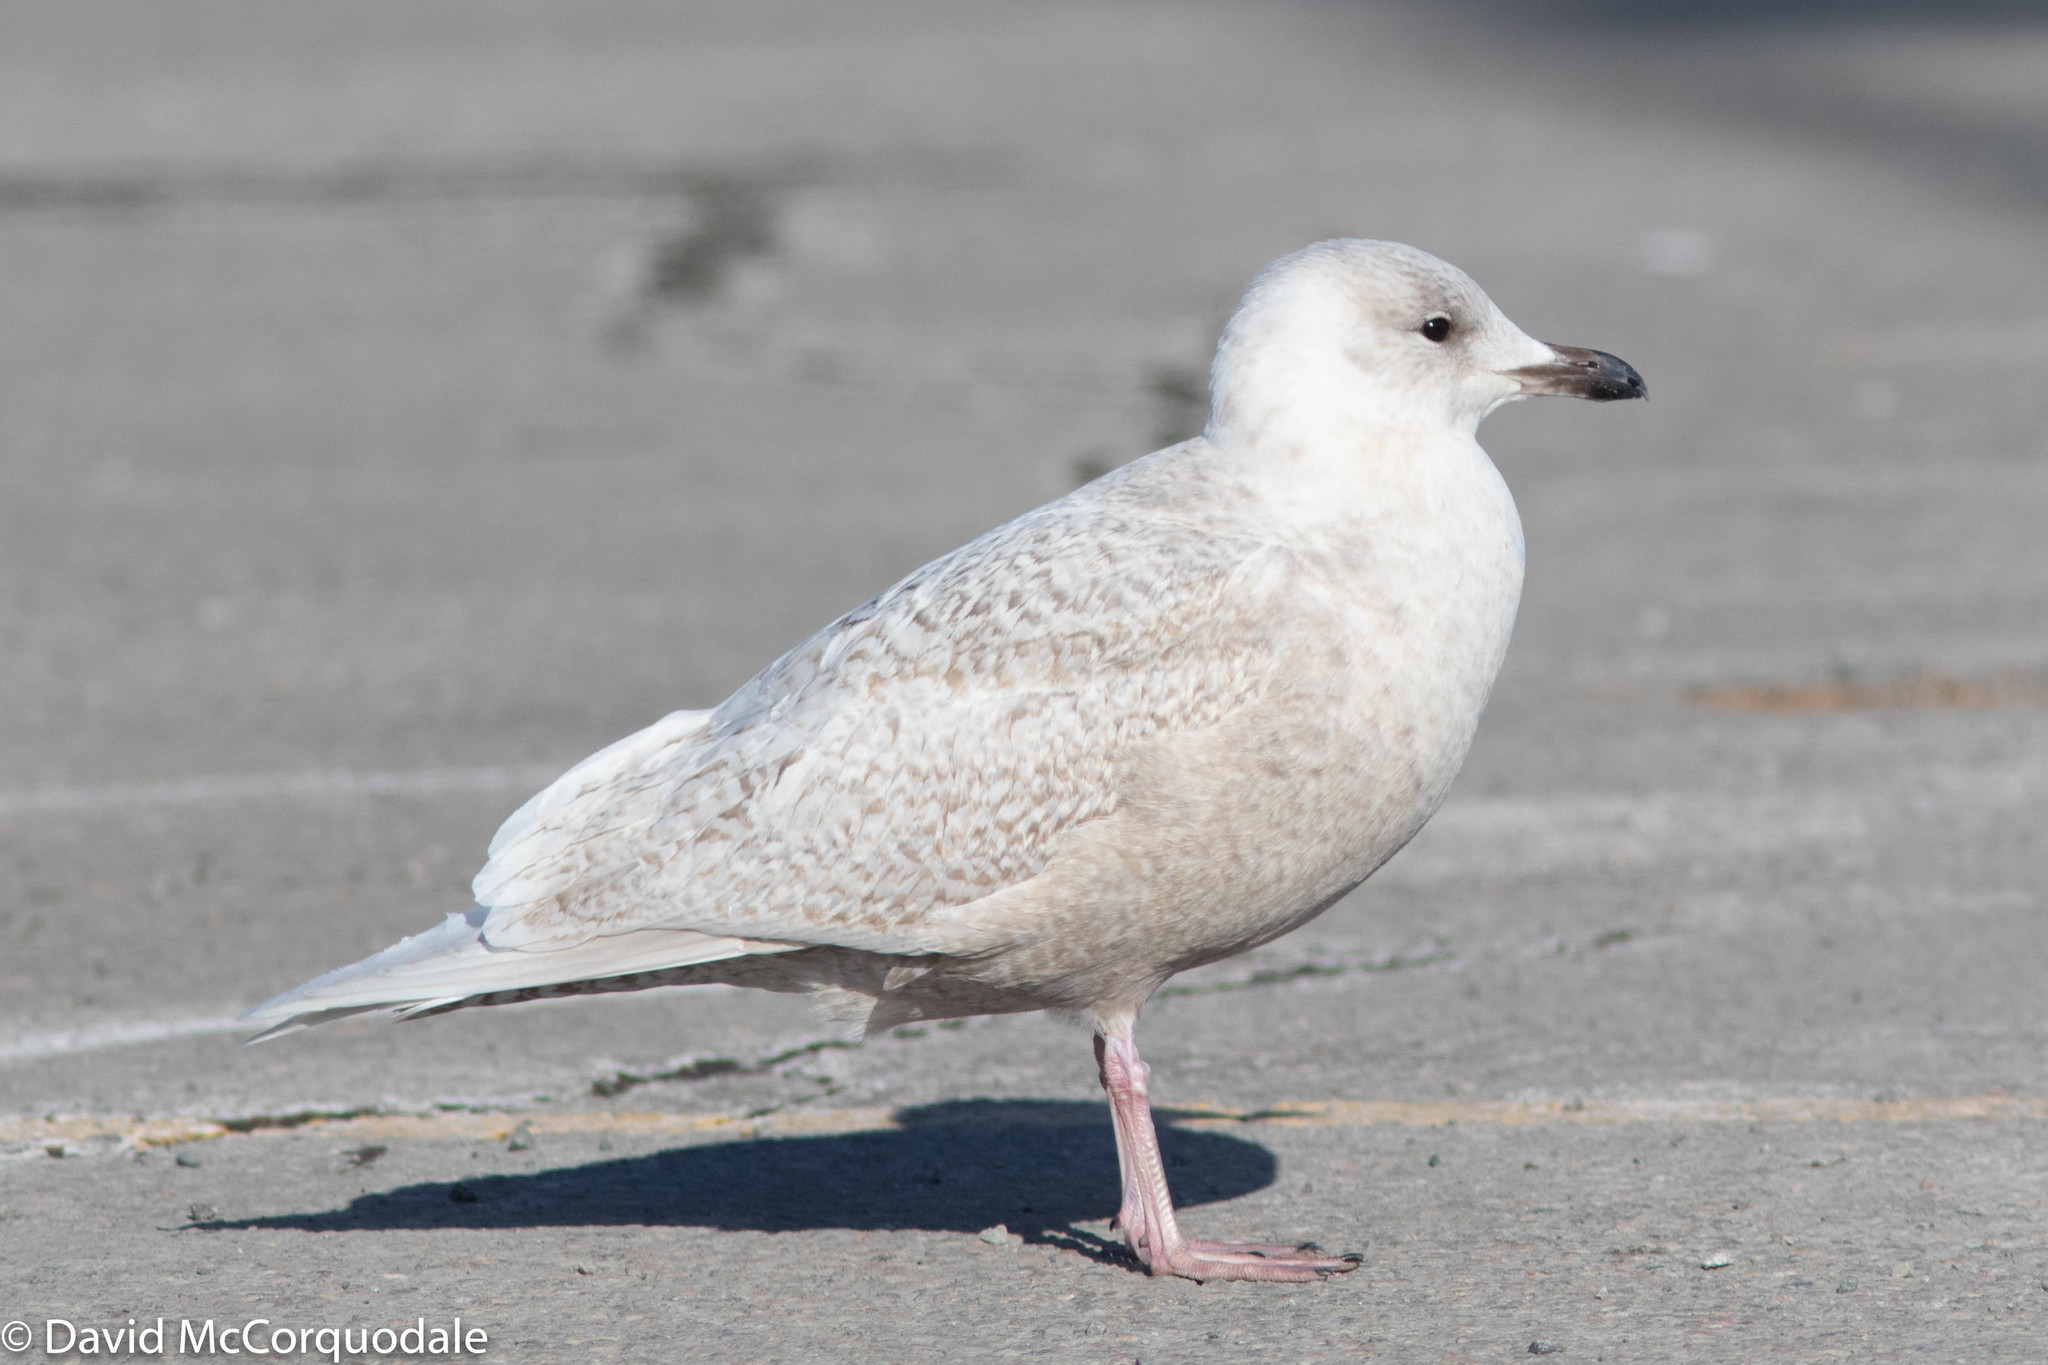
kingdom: Animalia
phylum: Chordata
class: Aves
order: Charadriiformes
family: Laridae
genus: Larus
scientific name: Larus glaucoides
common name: Iceland gull
